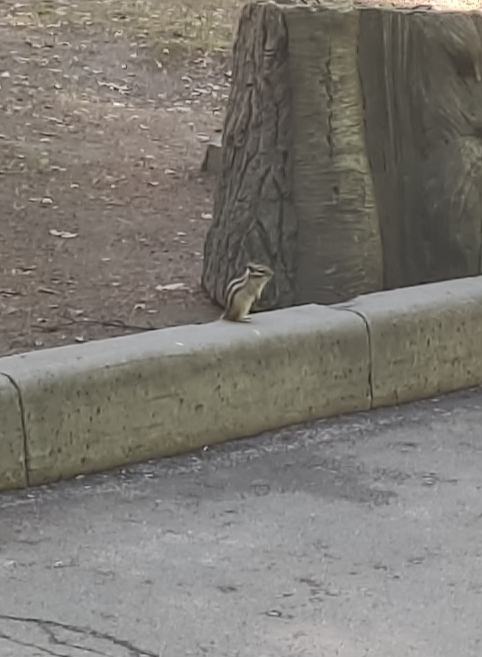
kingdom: Animalia
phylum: Chordata
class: Mammalia
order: Rodentia
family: Sciuridae
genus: Tamias
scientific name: Tamias sibiricus
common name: Siberian chipmunk
